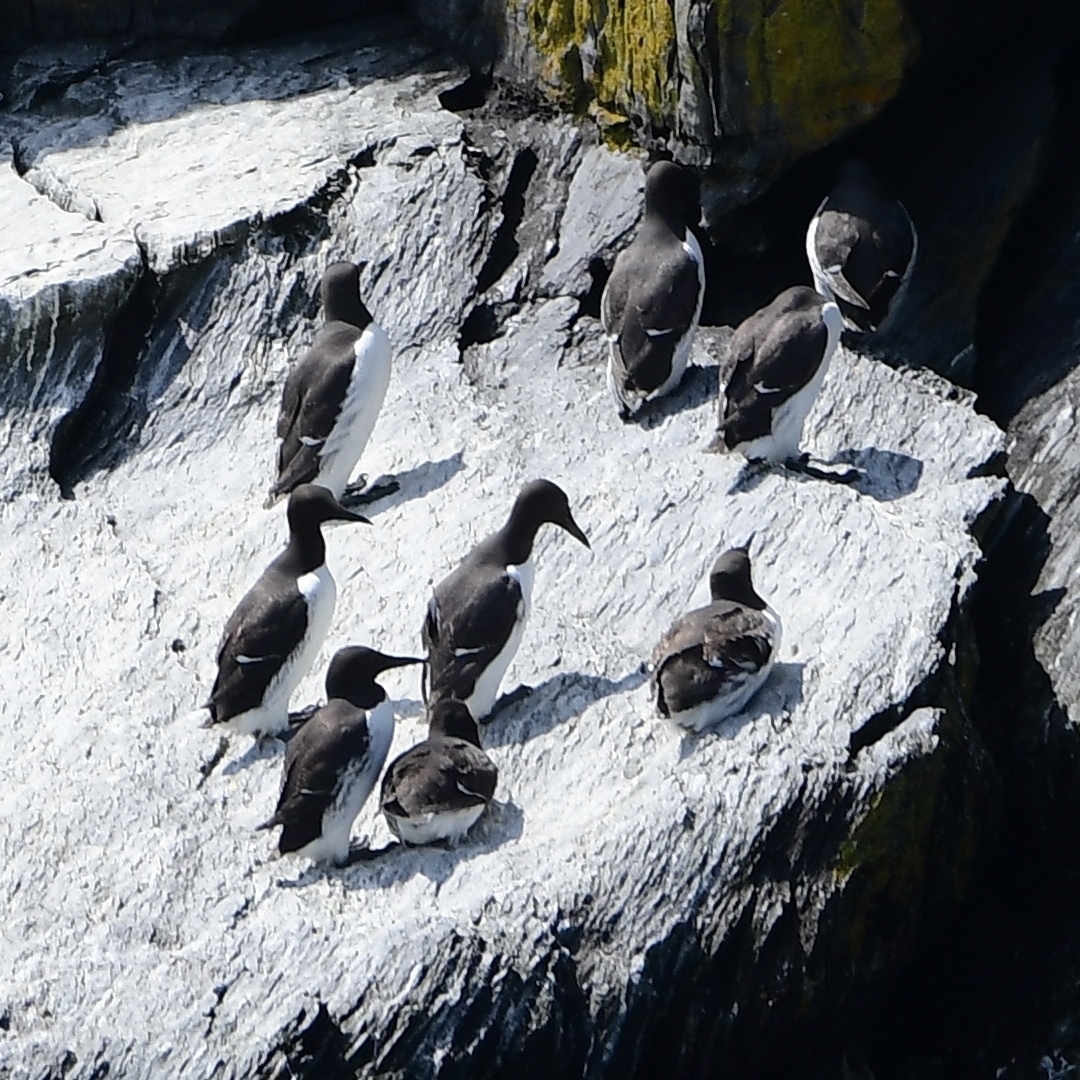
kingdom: Animalia
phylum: Chordata
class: Aves
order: Charadriiformes
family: Alcidae
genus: Uria
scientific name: Uria aalge
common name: Common murre
